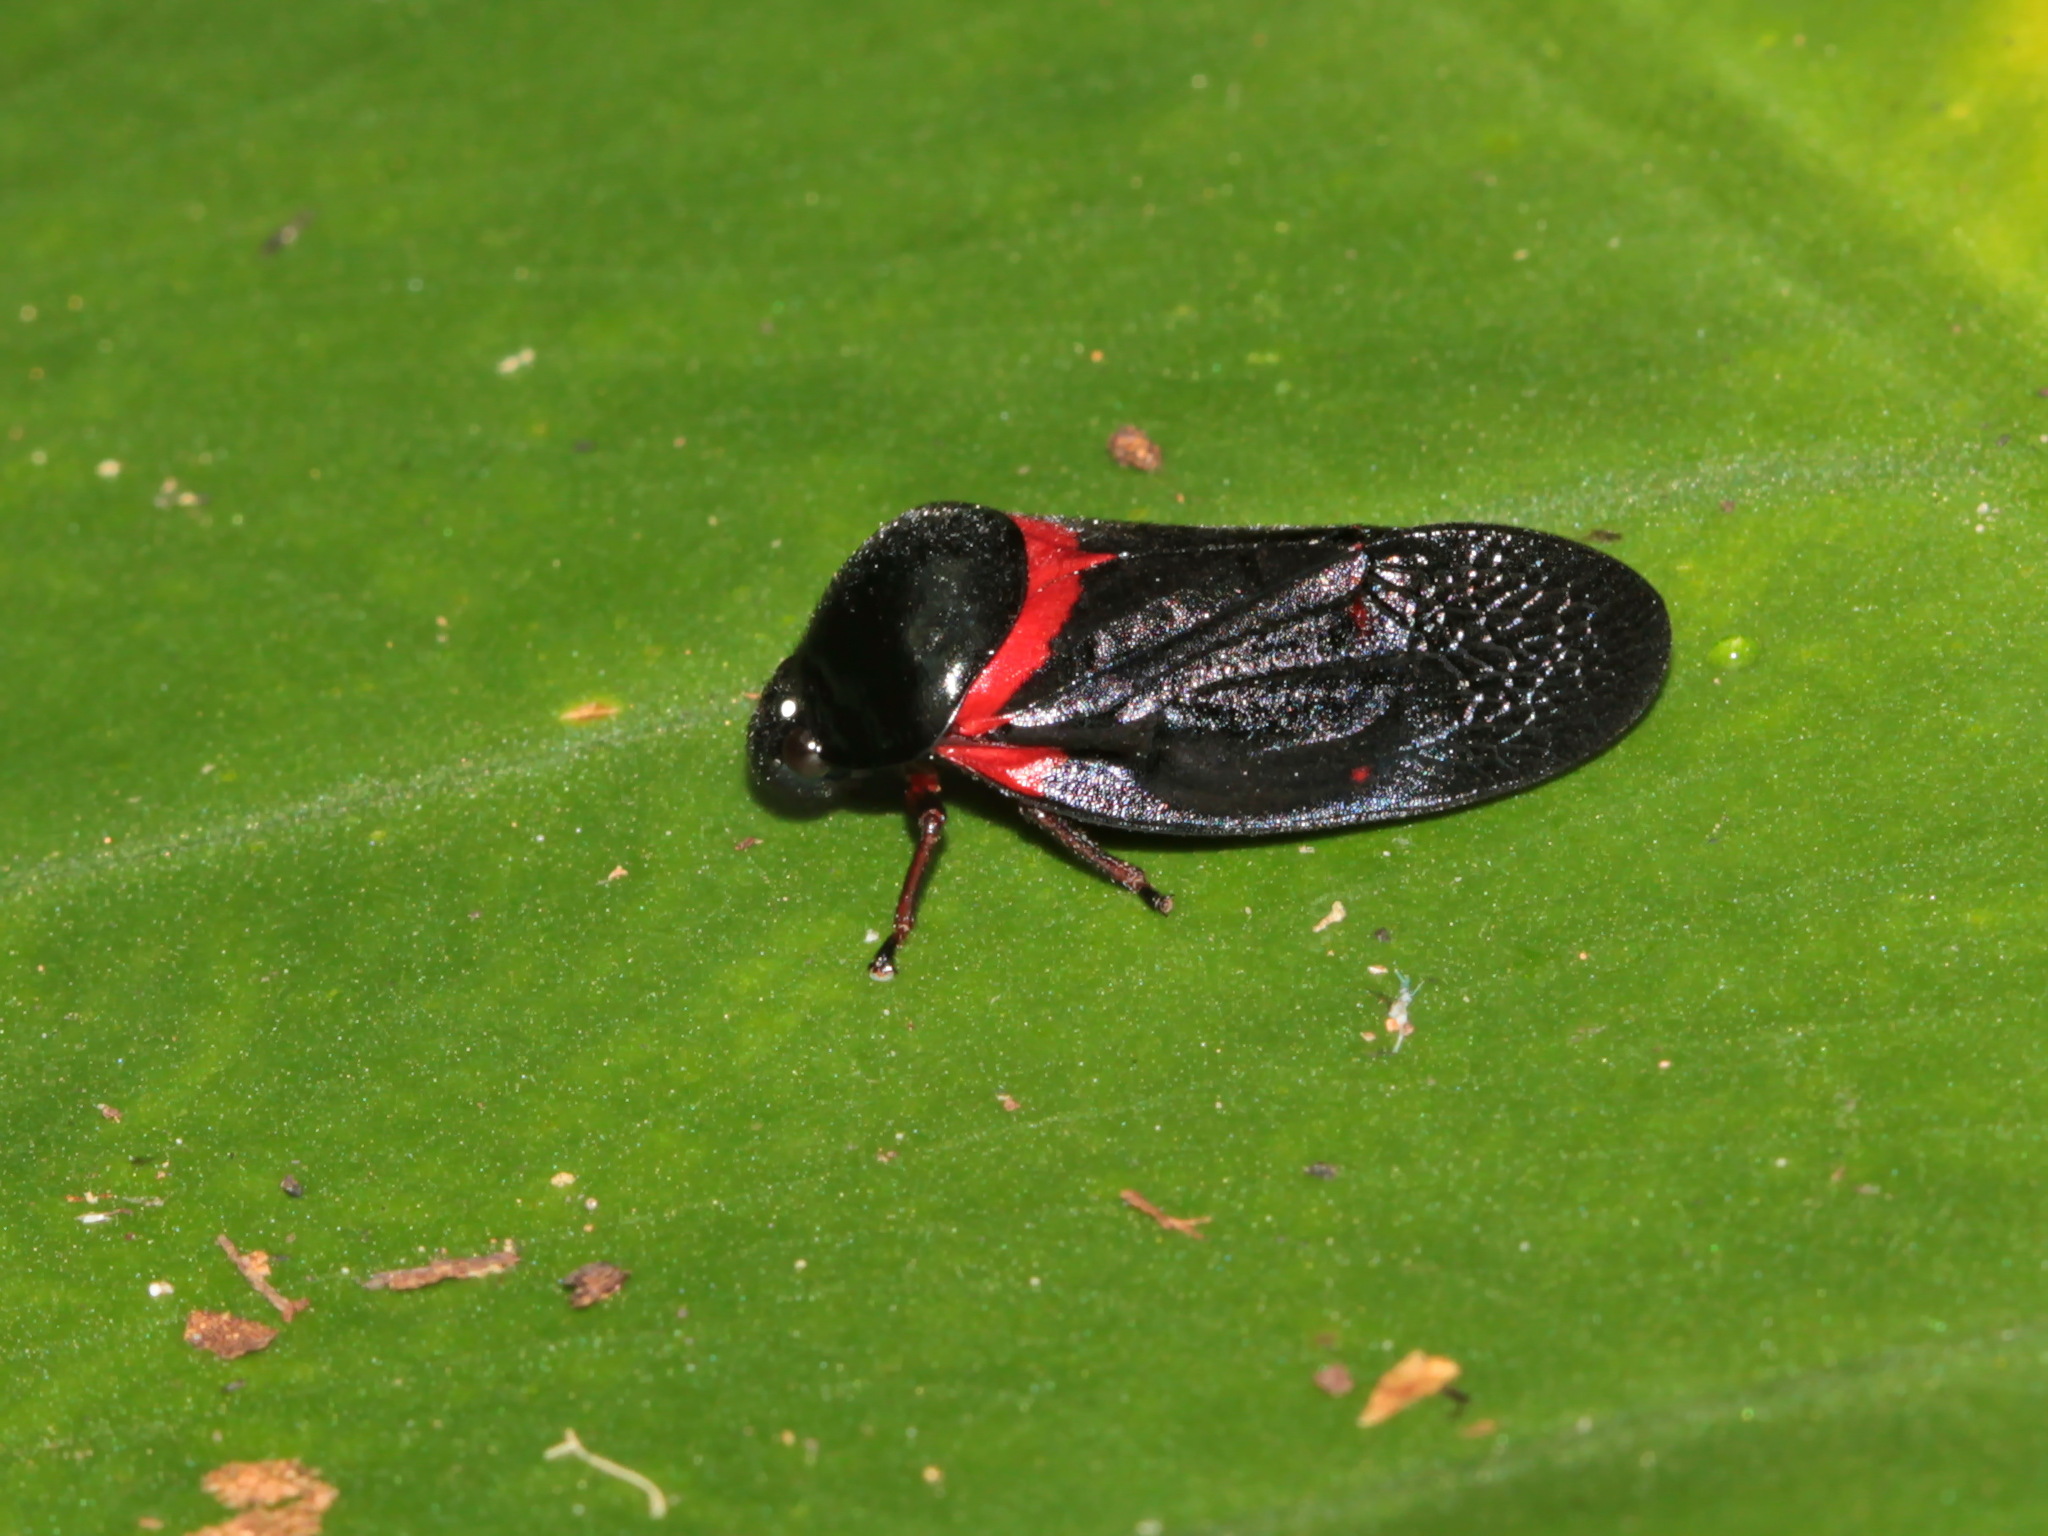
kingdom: Animalia
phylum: Arthropoda
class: Insecta
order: Hemiptera
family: Cercopidae
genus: Cosmoscarta
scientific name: Cosmoscarta prompta
